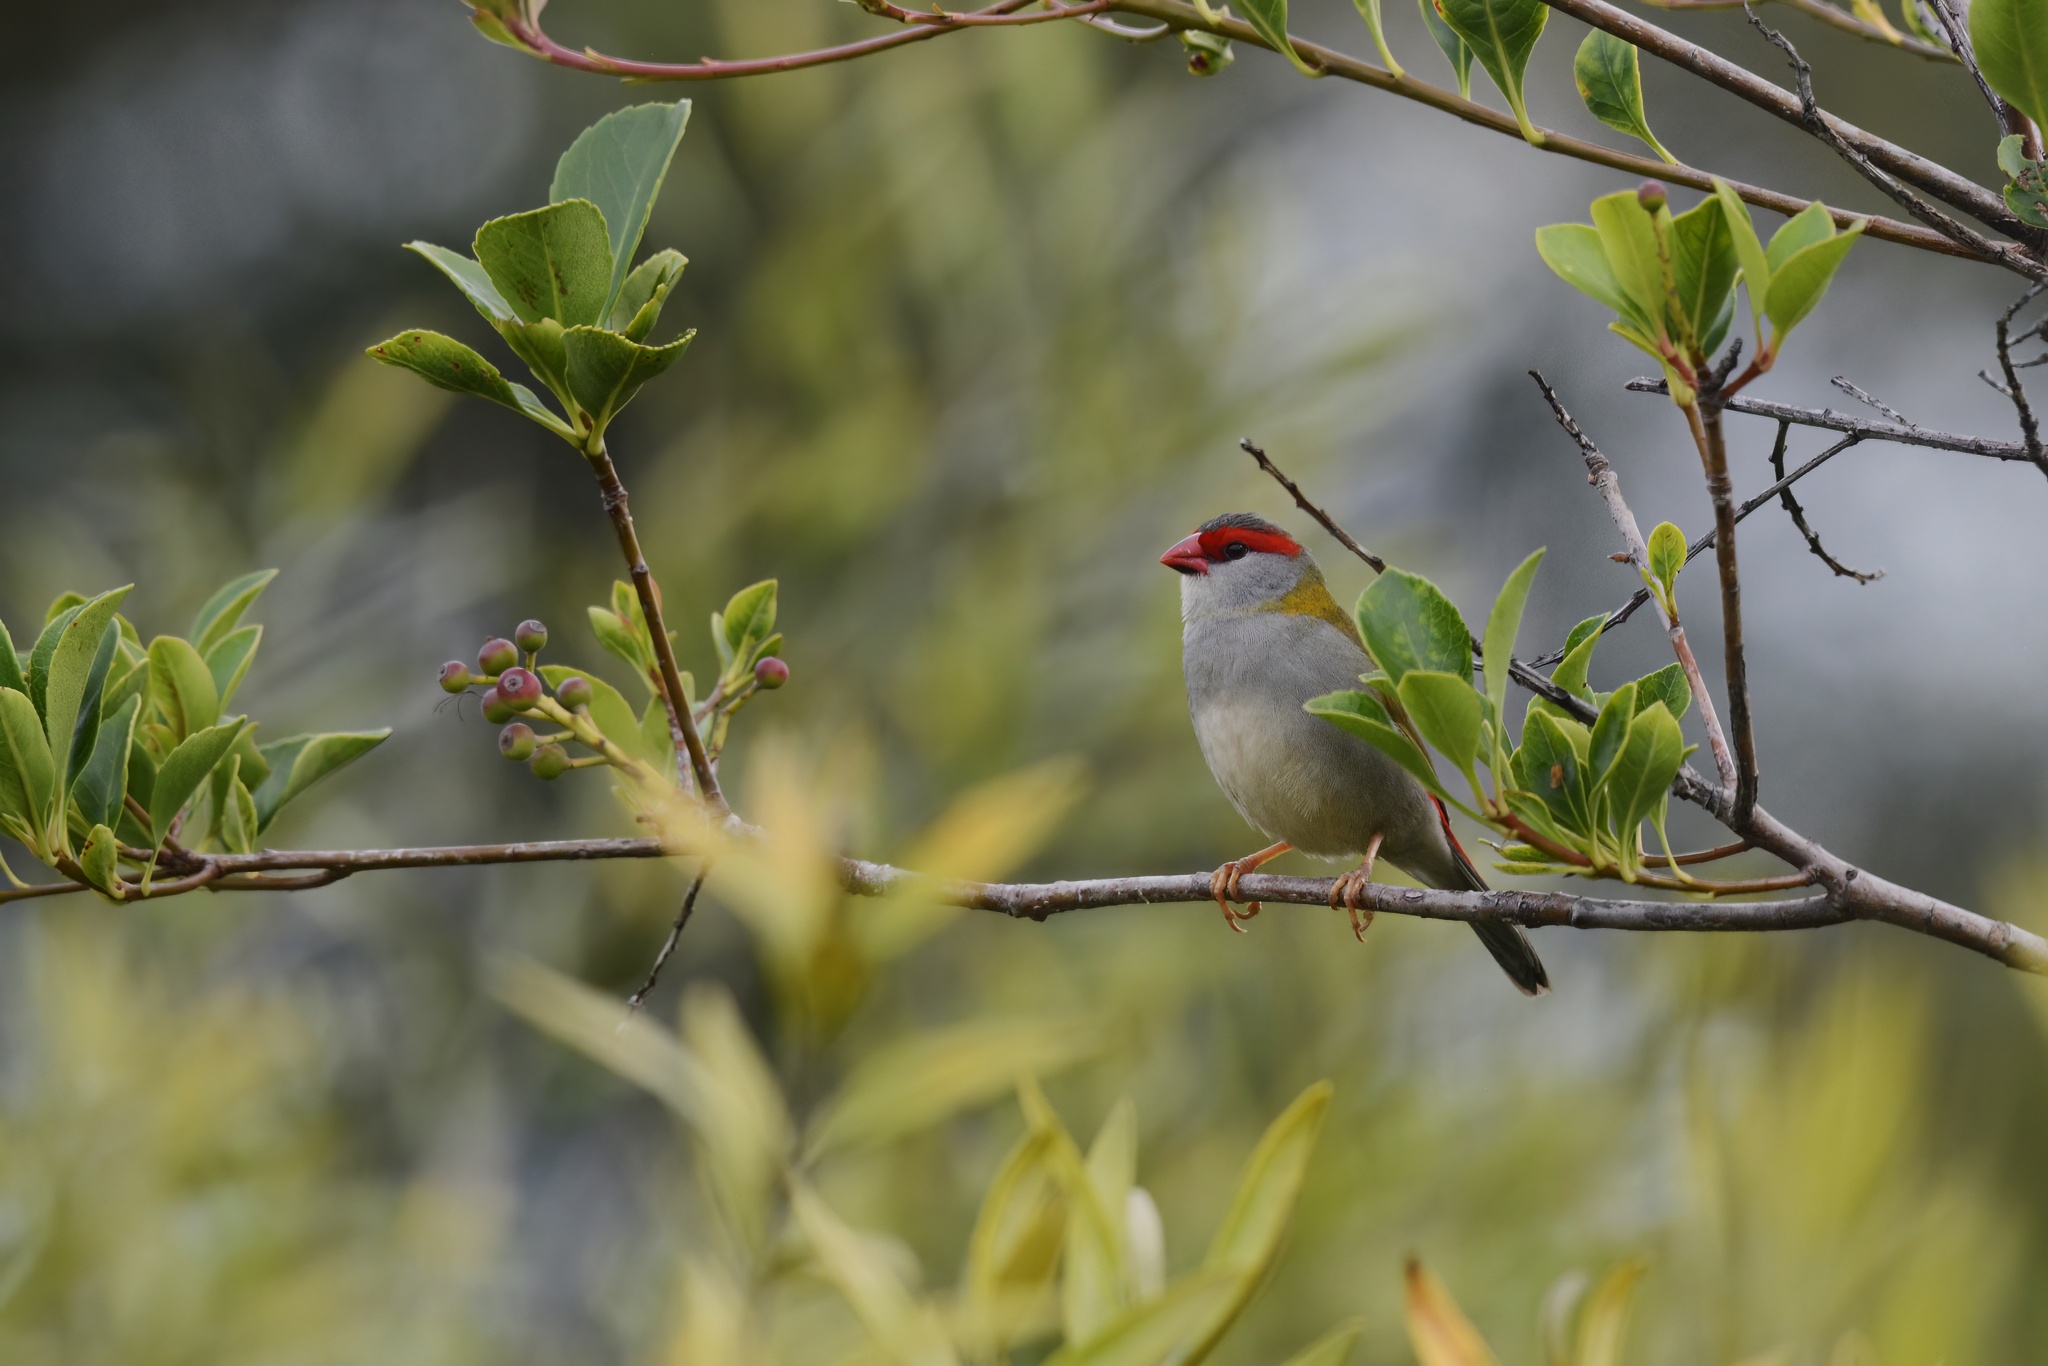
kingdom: Animalia
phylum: Chordata
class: Aves
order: Passeriformes
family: Estrildidae
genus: Neochmia
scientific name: Neochmia temporalis
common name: Red-browed finch
